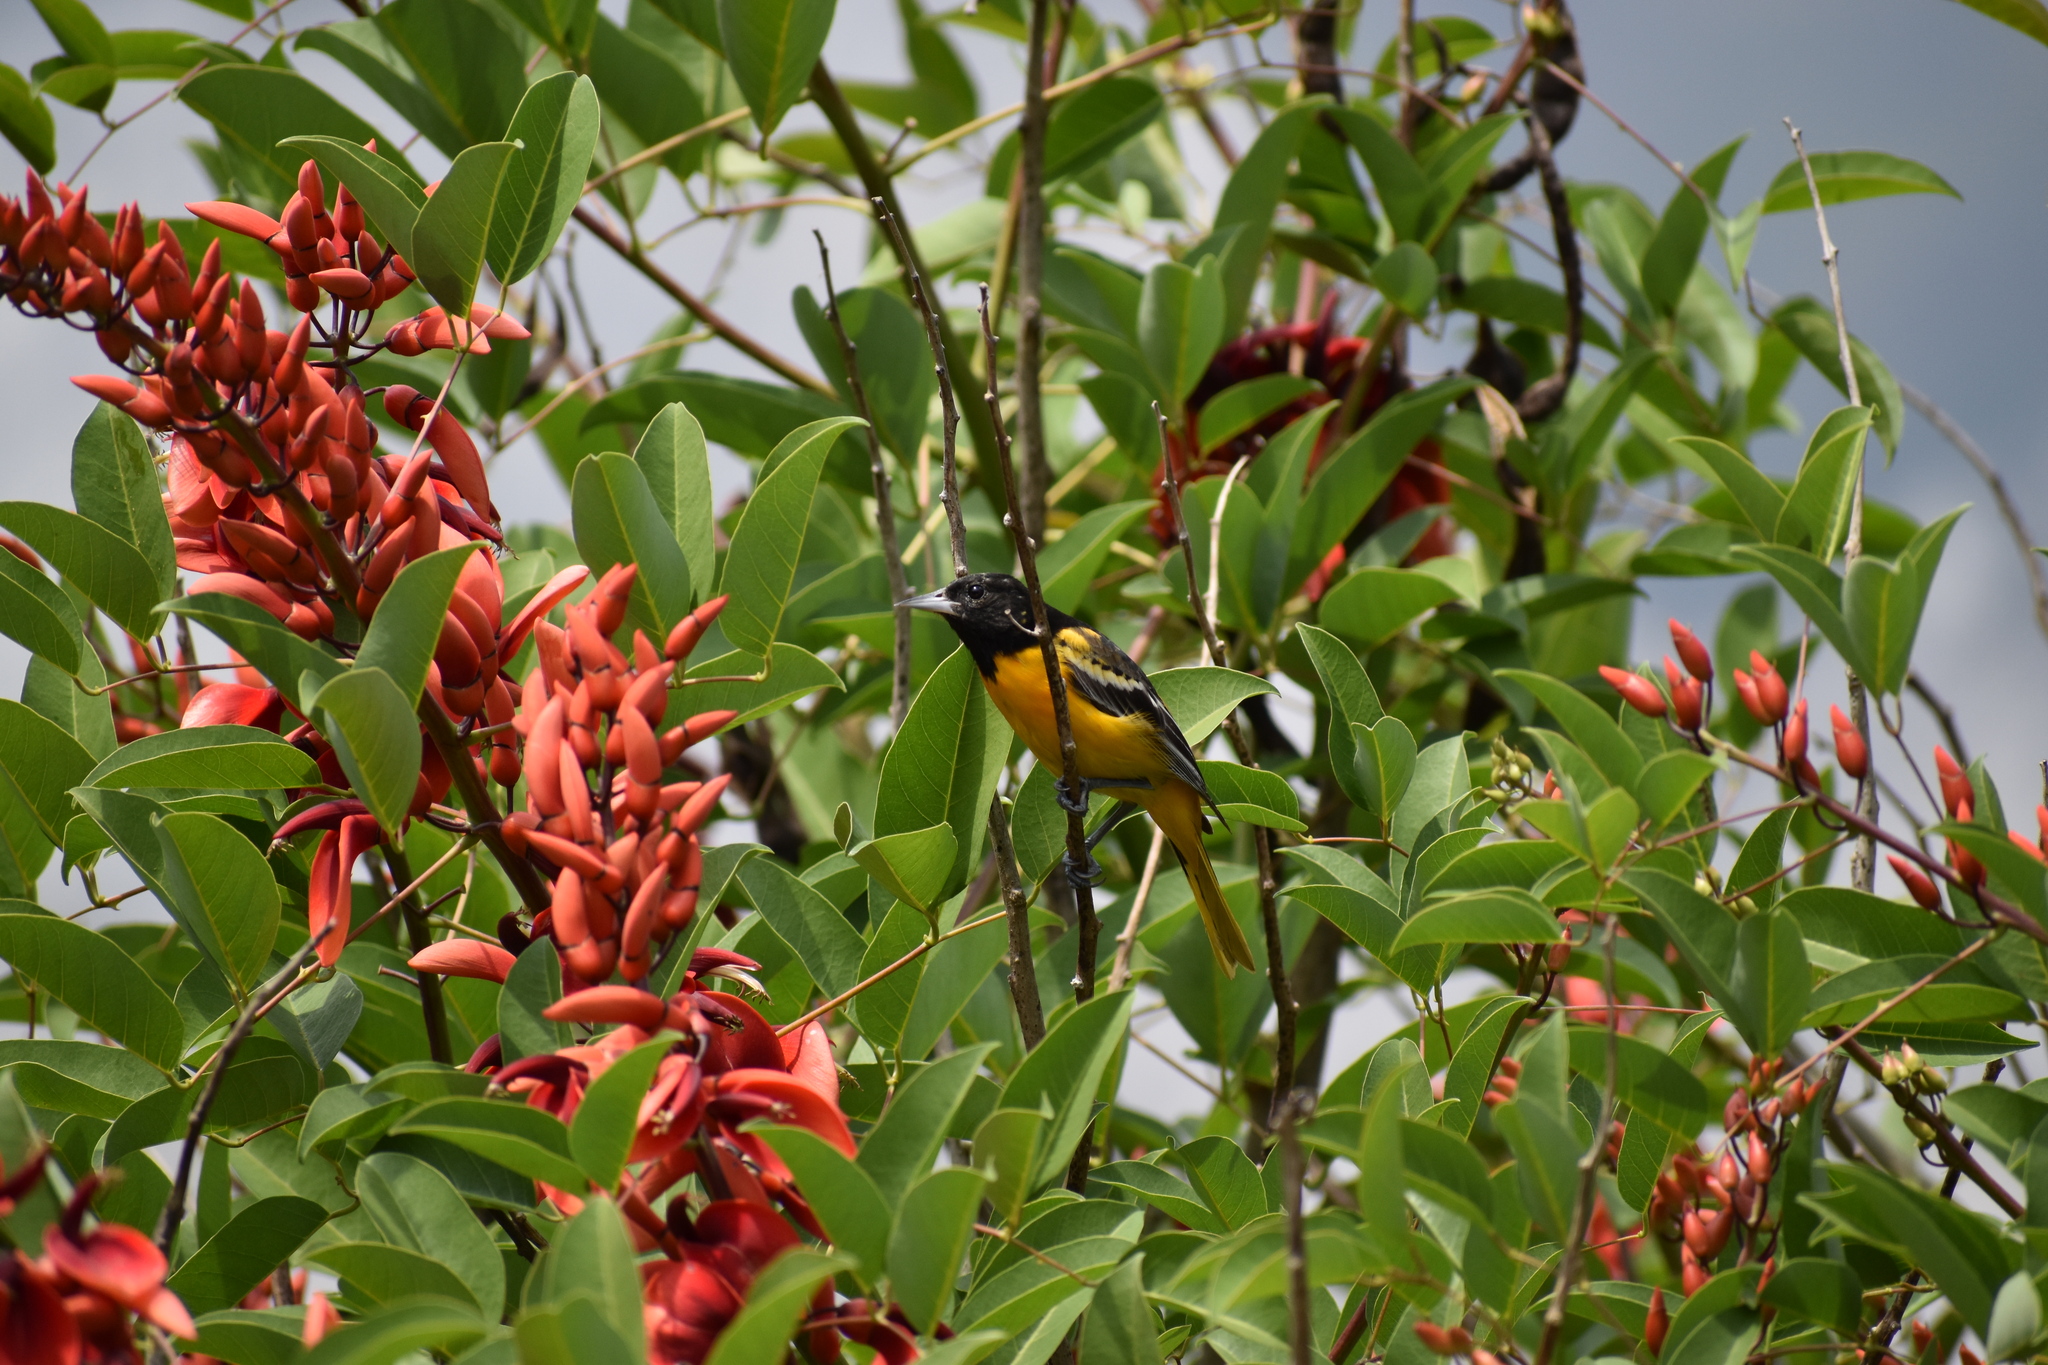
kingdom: Animalia
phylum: Chordata
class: Aves
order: Passeriformes
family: Icteridae
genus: Icterus
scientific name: Icterus galbula
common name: Baltimore oriole
